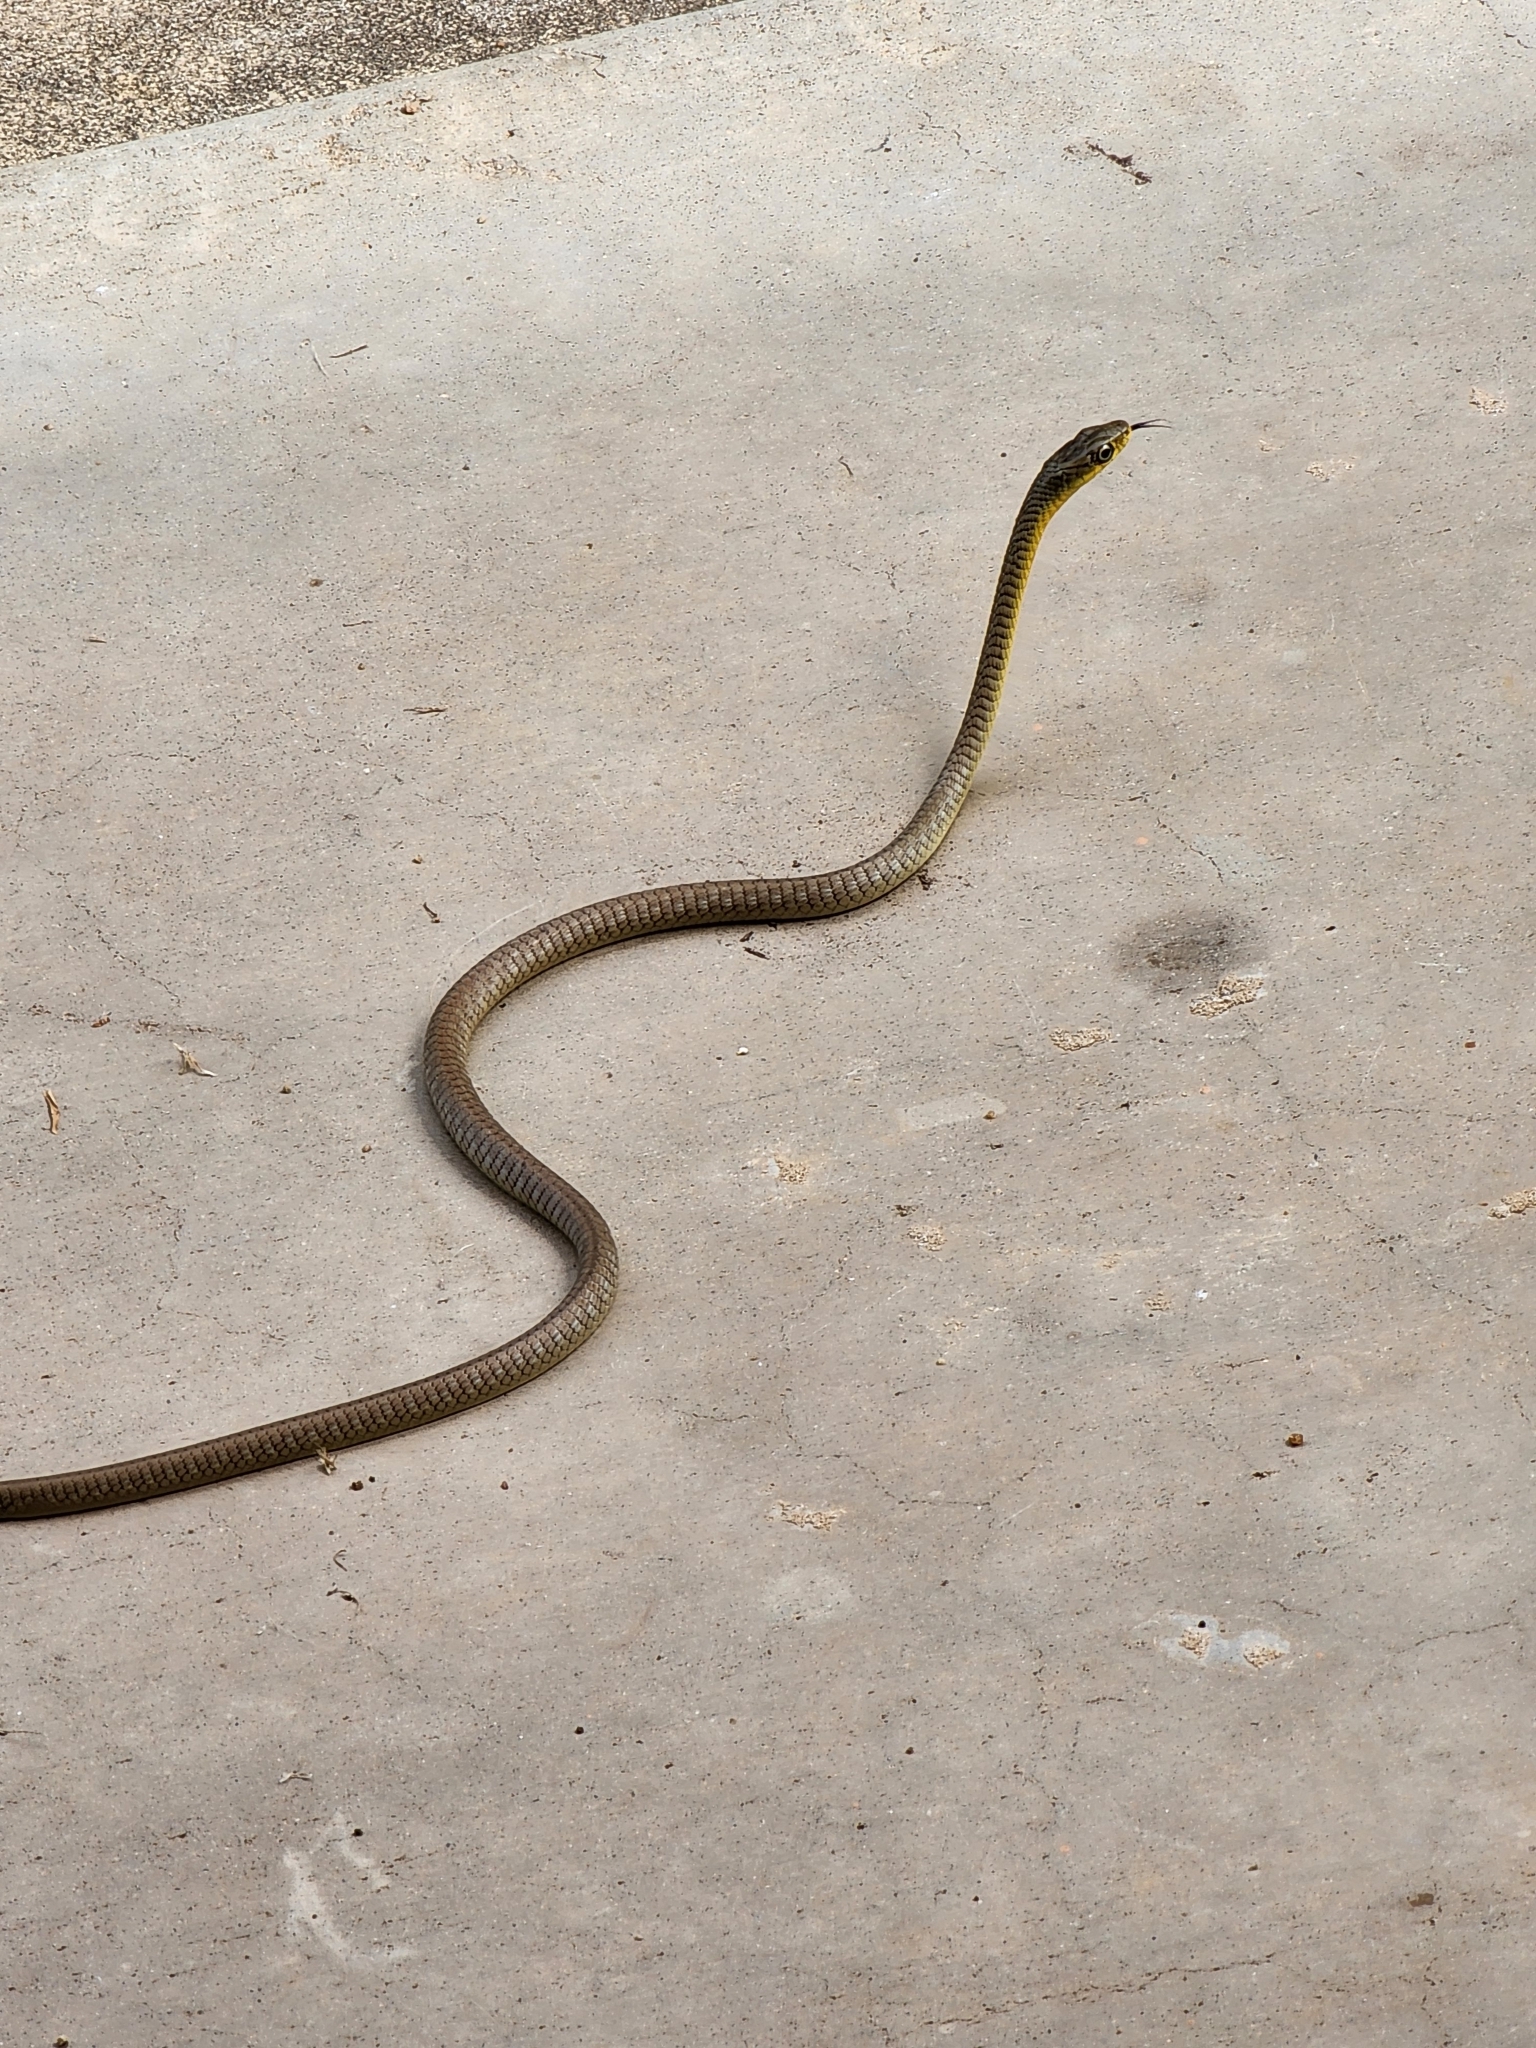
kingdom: Animalia
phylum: Chordata
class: Squamata
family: Colubridae
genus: Dendrelaphis
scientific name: Dendrelaphis punctulatus
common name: Common tree snake
